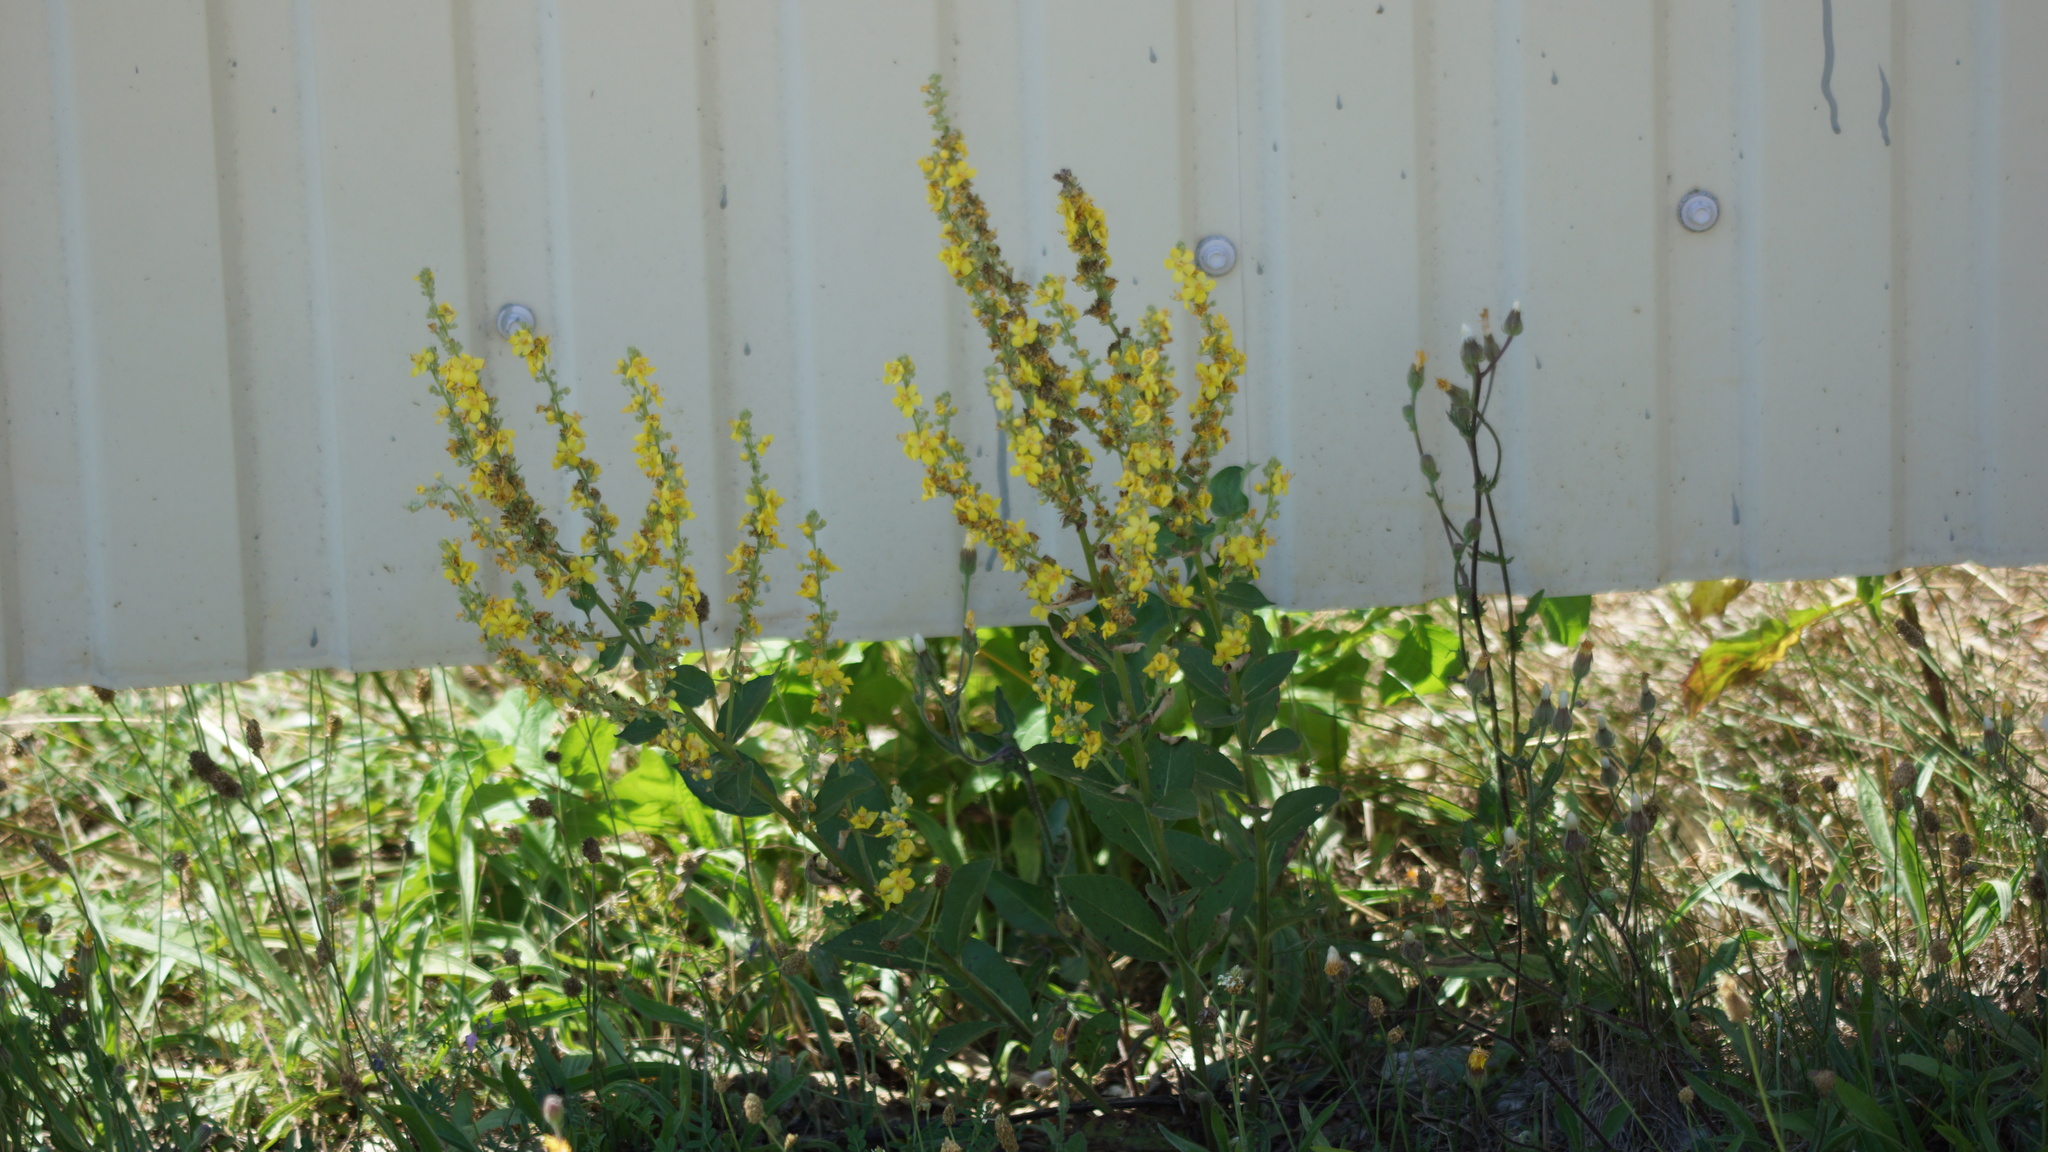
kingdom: Plantae
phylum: Tracheophyta
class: Magnoliopsida
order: Lamiales
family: Scrophulariaceae
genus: Verbascum
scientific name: Verbascum lychnitis
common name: White mullein
